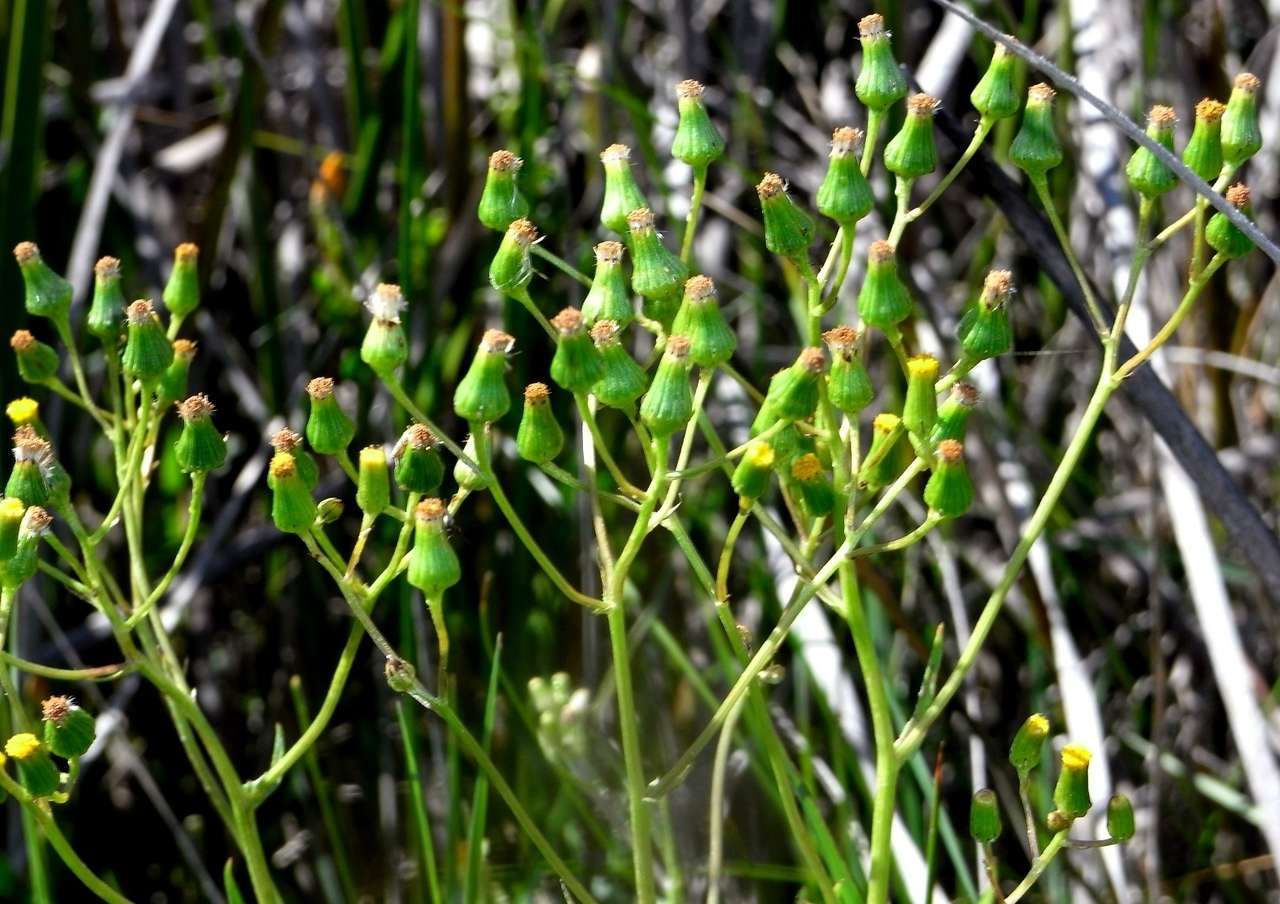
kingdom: Plantae
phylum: Tracheophyta
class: Magnoliopsida
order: Asterales
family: Asteraceae
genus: Senecio
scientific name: Senecio psilocarpus
